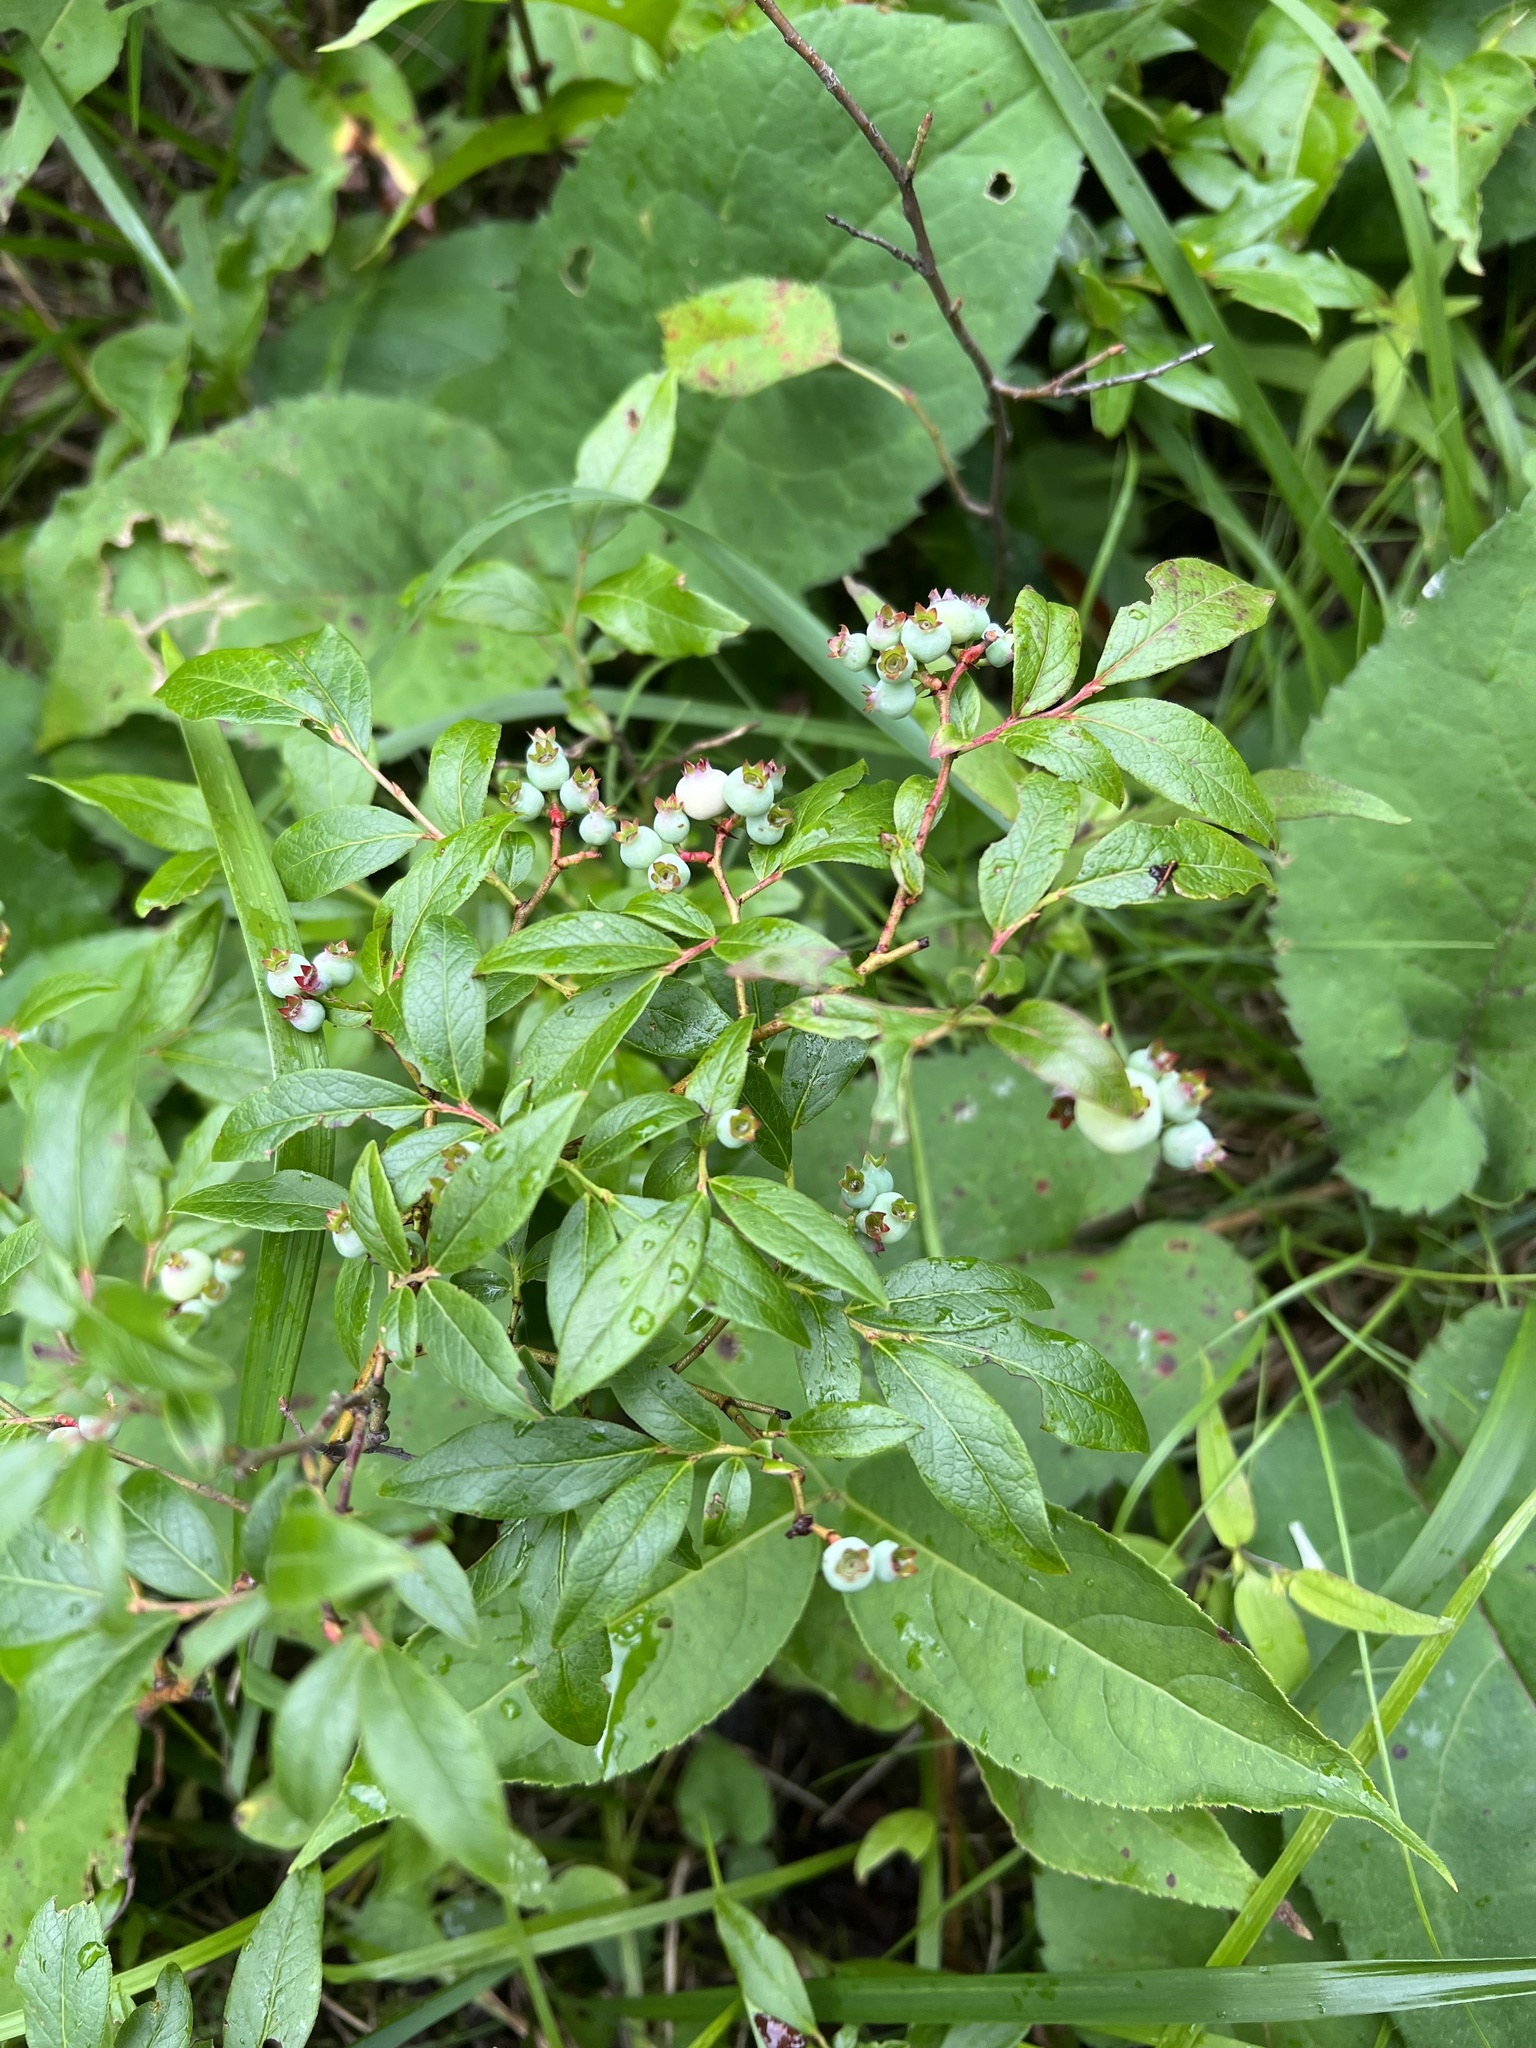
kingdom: Plantae
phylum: Tracheophyta
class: Magnoliopsida
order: Ericales
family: Ericaceae
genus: Vaccinium
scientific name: Vaccinium angustifolium
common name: Early lowbush blueberry
